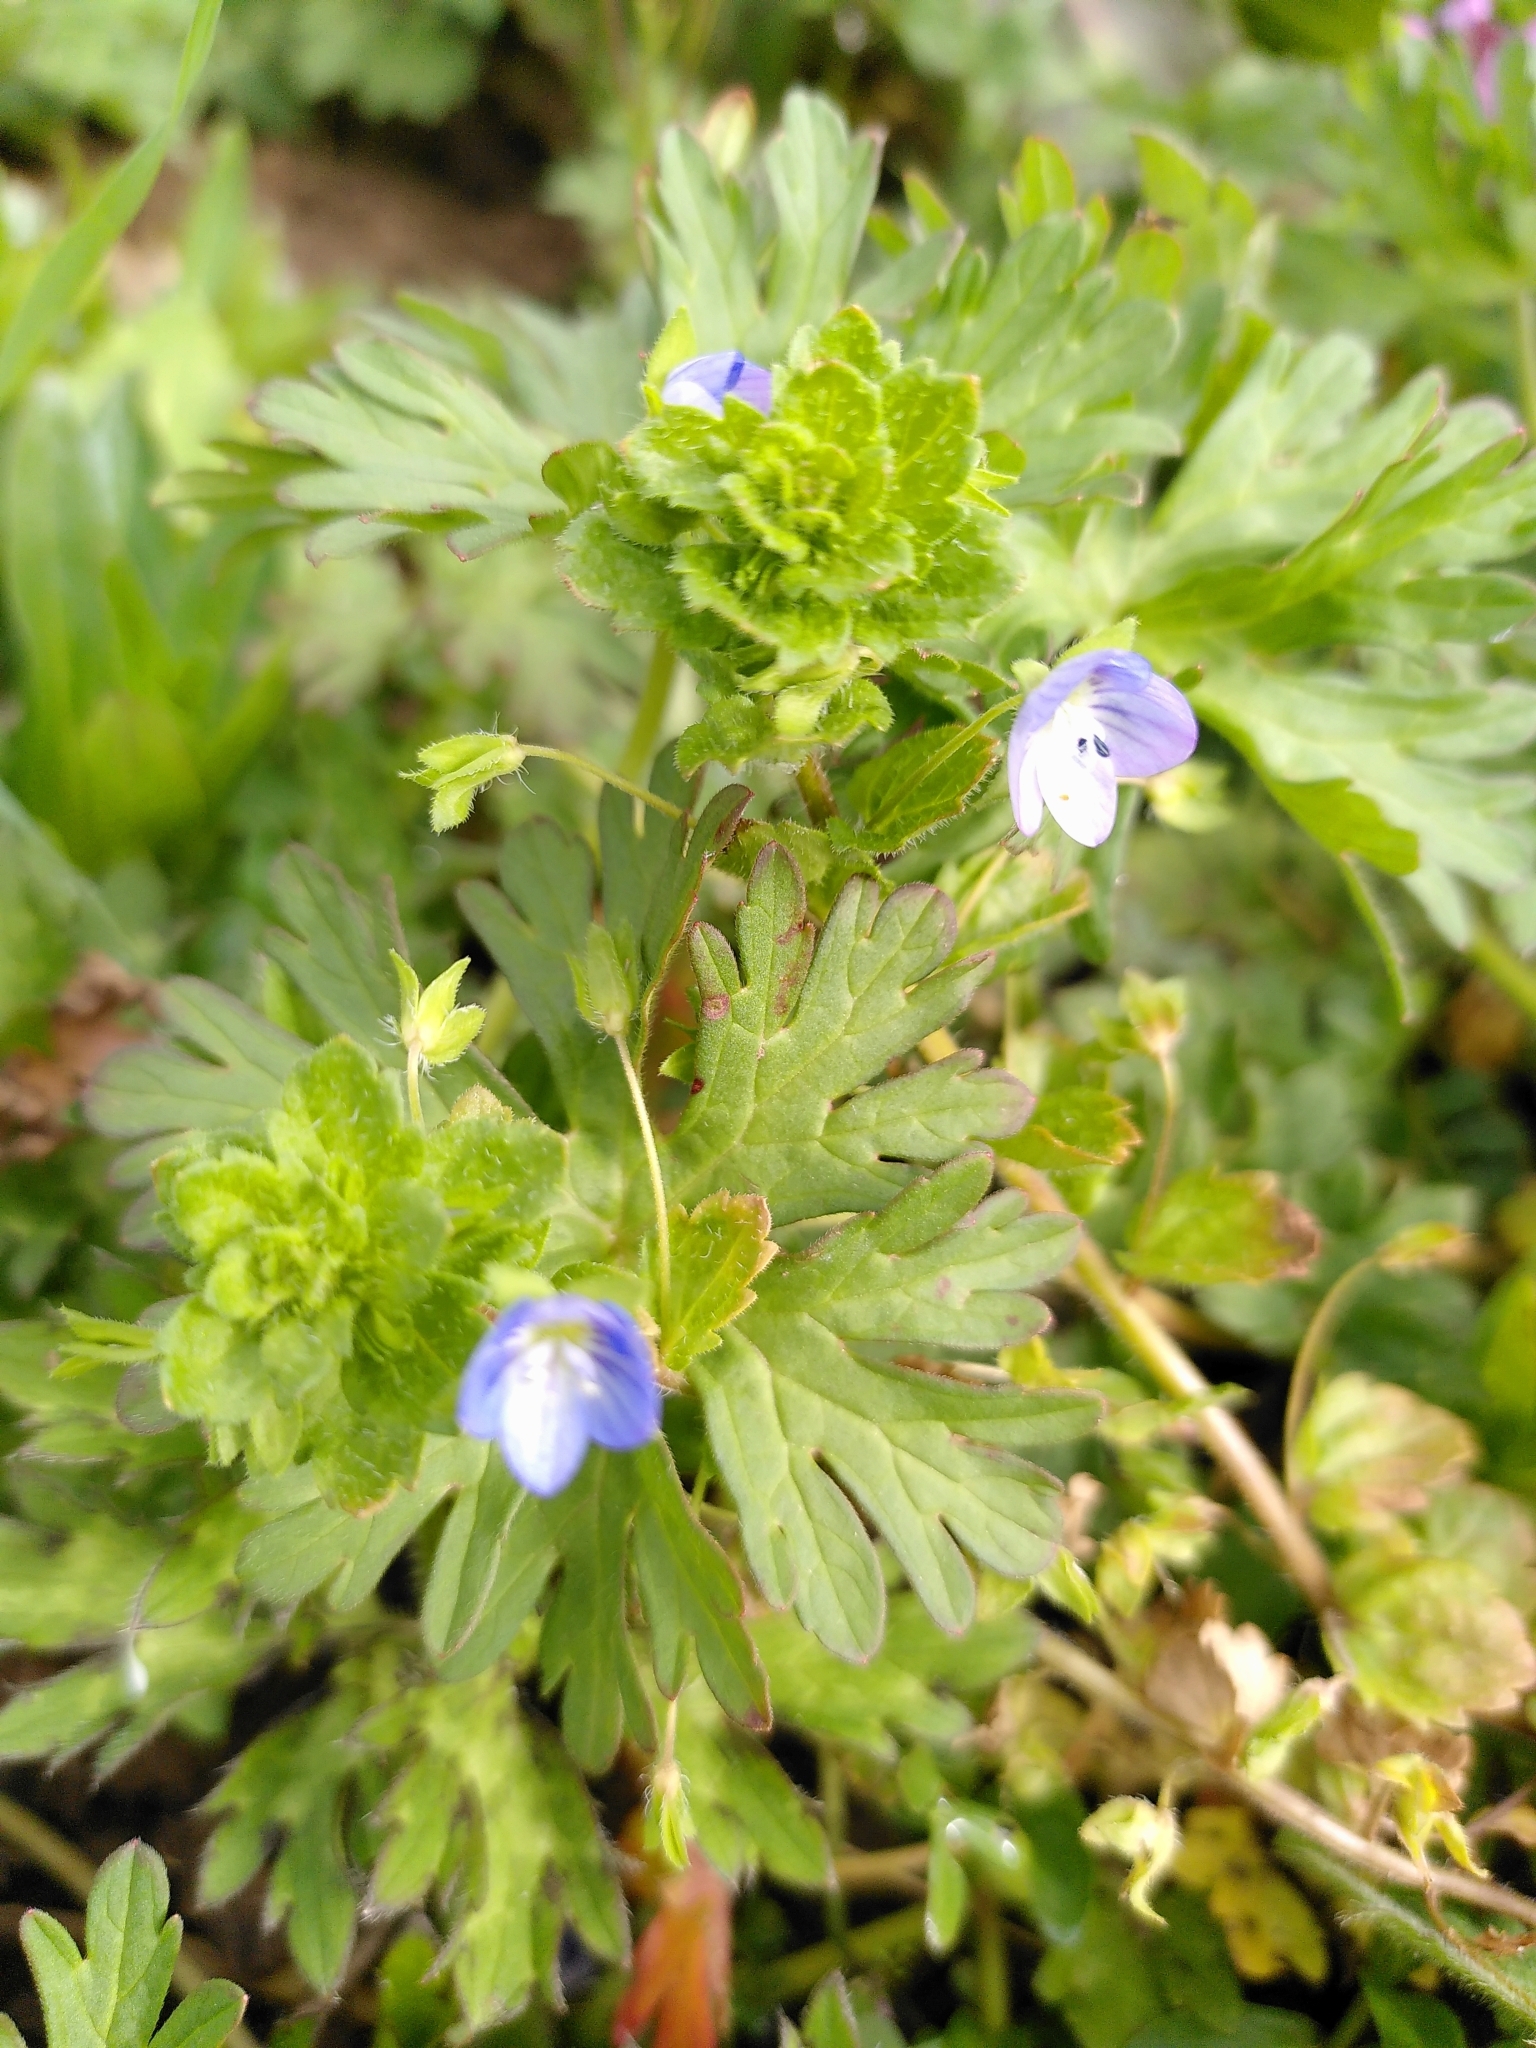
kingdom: Plantae
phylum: Tracheophyta
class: Magnoliopsida
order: Lamiales
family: Plantaginaceae
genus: Veronica
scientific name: Veronica persica
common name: Common field-speedwell
